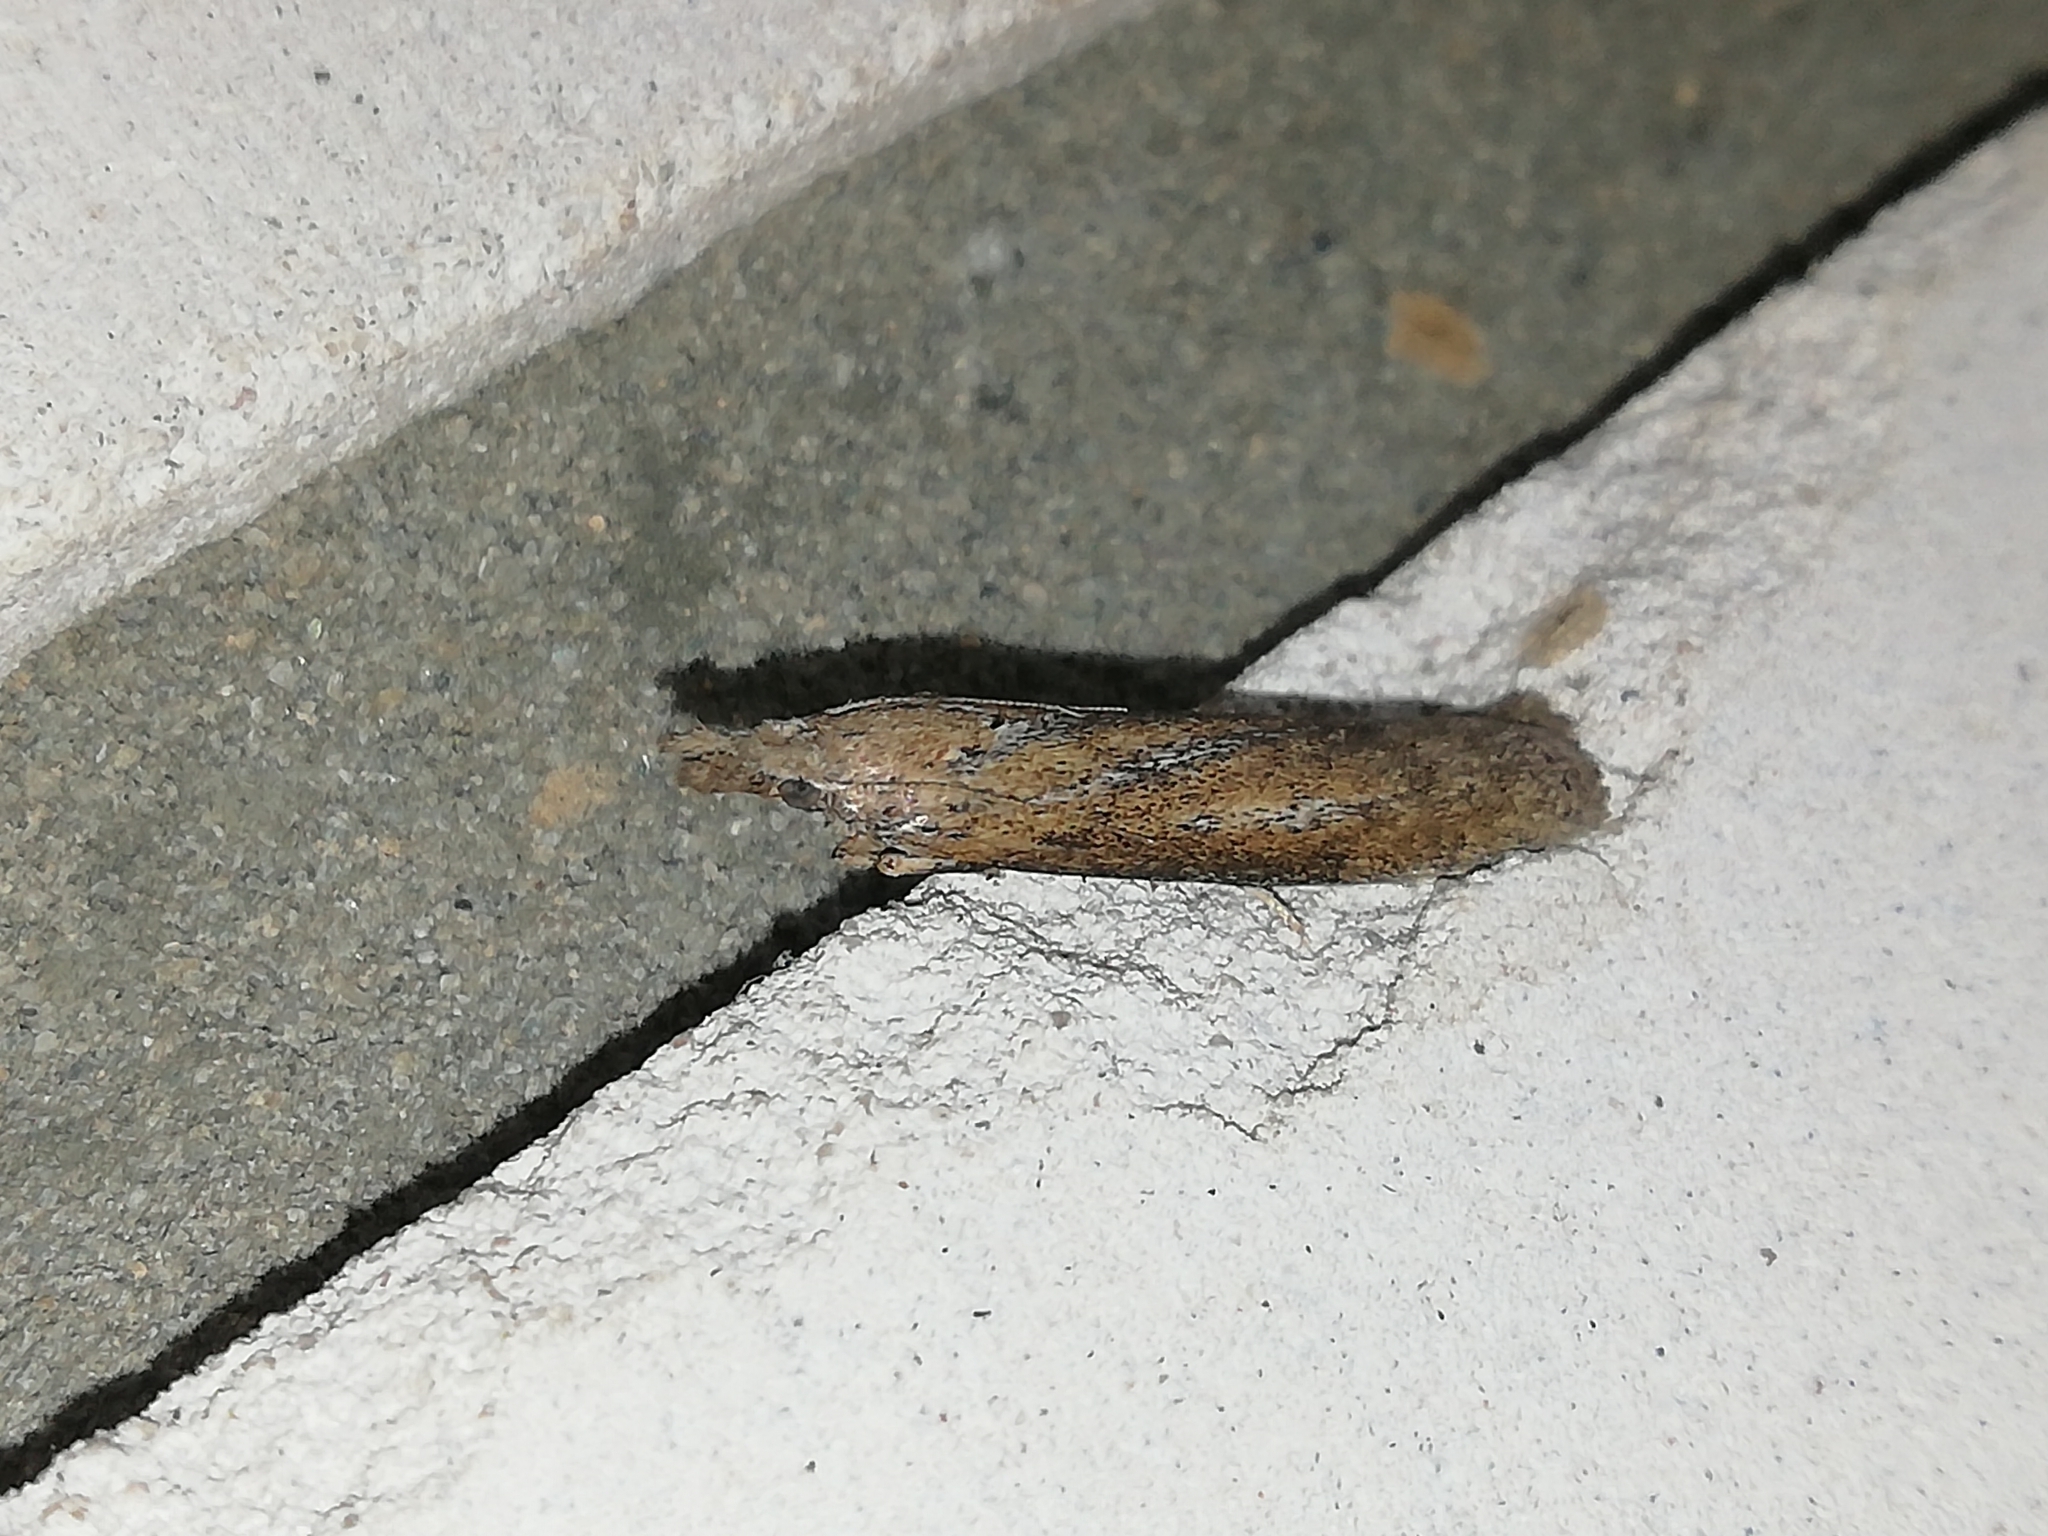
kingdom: Animalia
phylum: Arthropoda
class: Insecta
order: Lepidoptera
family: Pyralidae
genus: Aphomia
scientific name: Aphomia zelleri
